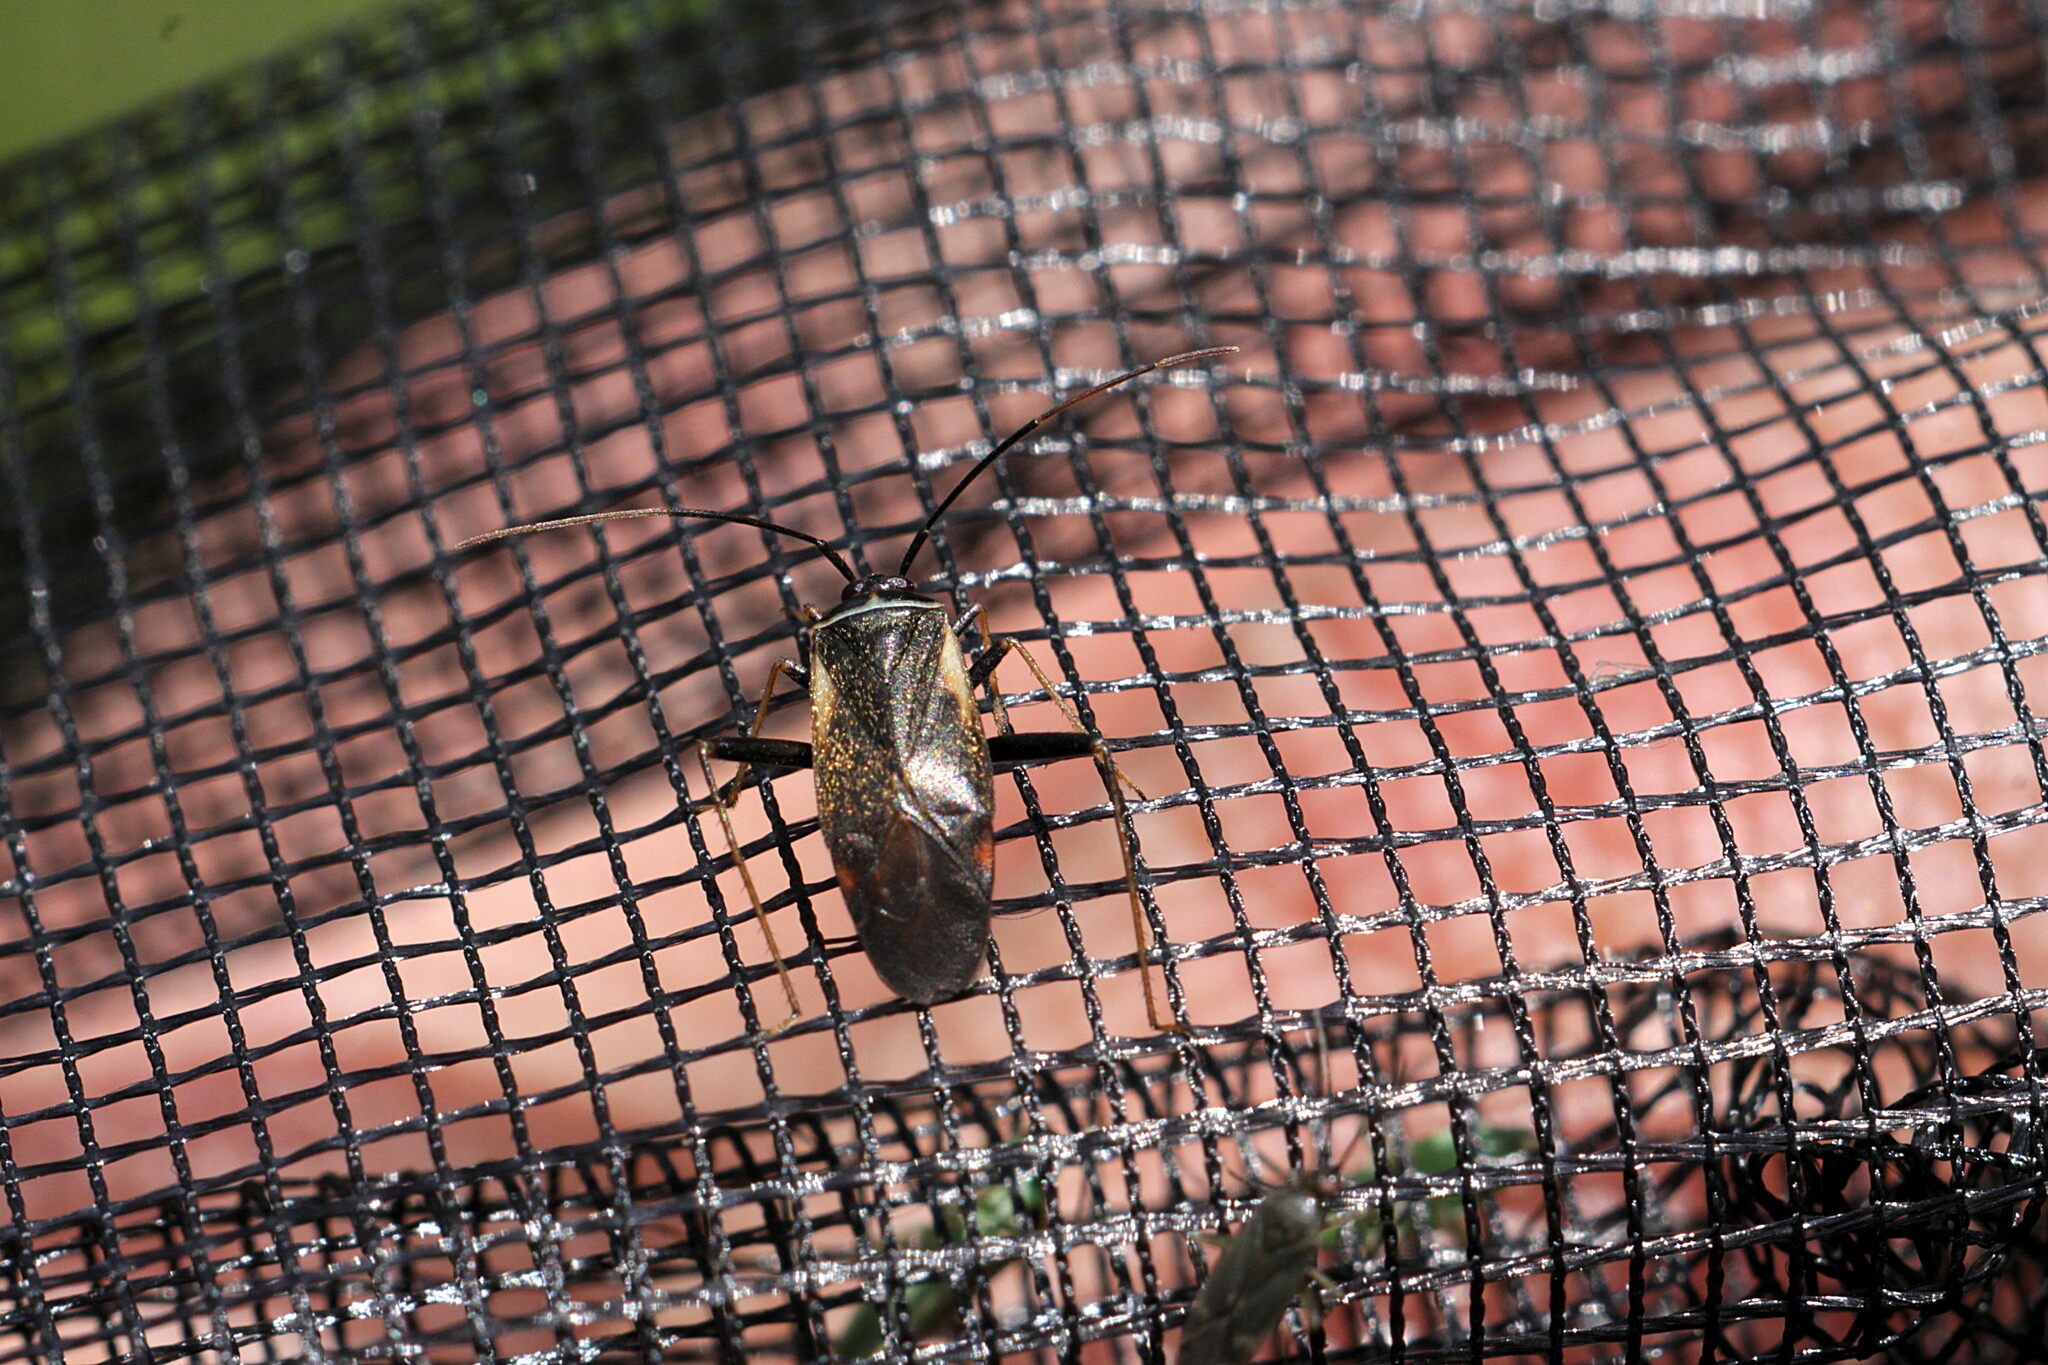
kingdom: Animalia
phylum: Arthropoda
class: Insecta
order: Hemiptera
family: Miridae
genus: Adelphocoris
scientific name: Adelphocoris seticornis
